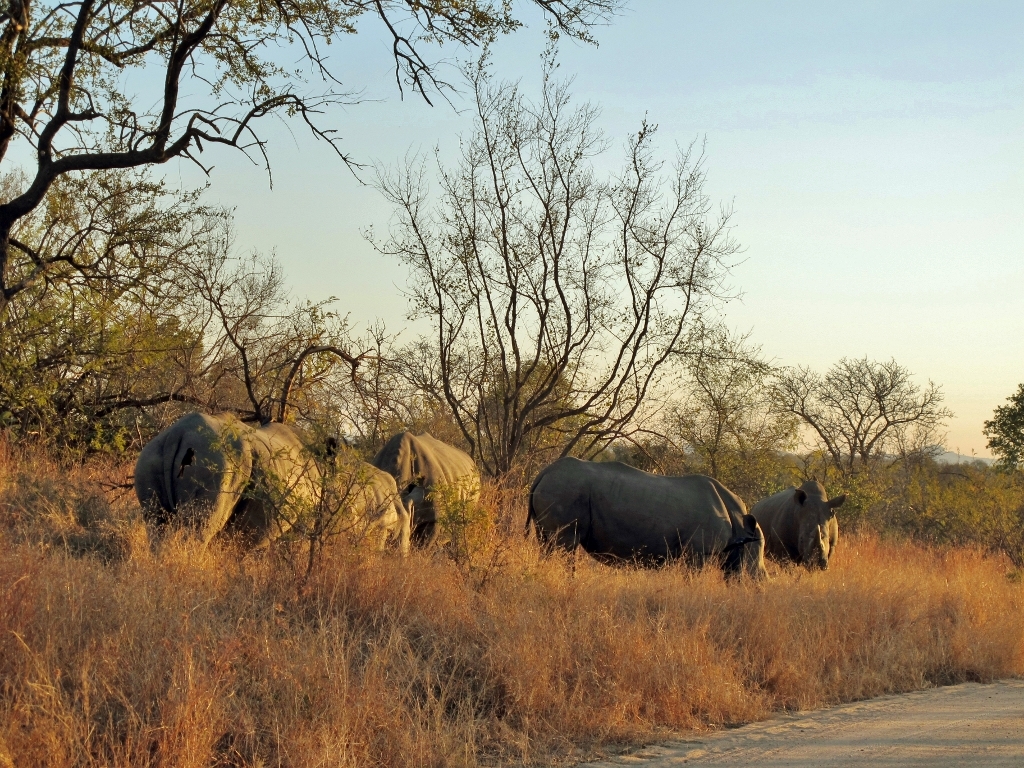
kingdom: Animalia
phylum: Chordata
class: Mammalia
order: Perissodactyla
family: Rhinocerotidae
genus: Ceratotherium
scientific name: Ceratotherium simum
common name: White rhinoceros
